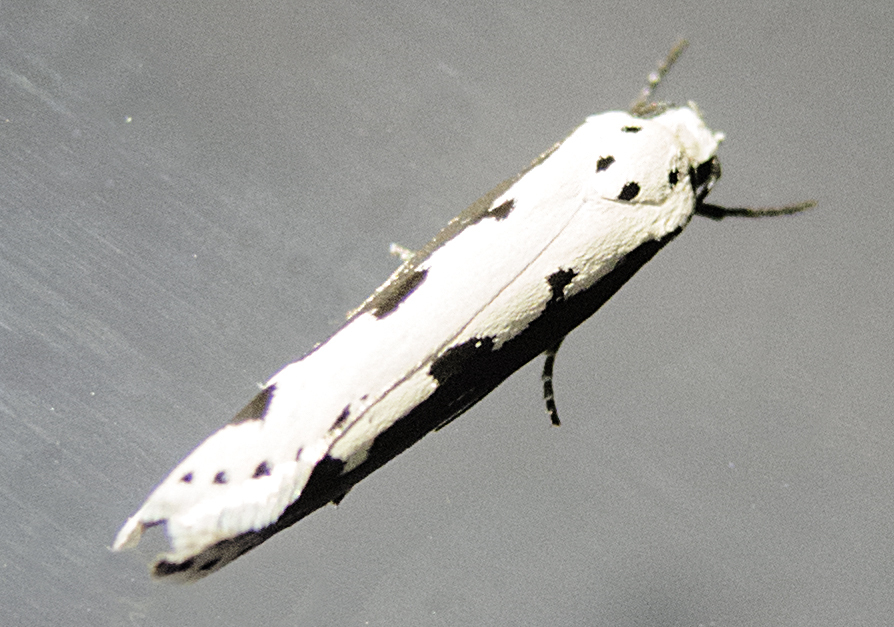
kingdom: Animalia
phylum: Arthropoda
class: Insecta
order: Lepidoptera
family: Ethmiidae
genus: Ethmia
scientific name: Ethmia bipunctella
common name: Bordered ermel
